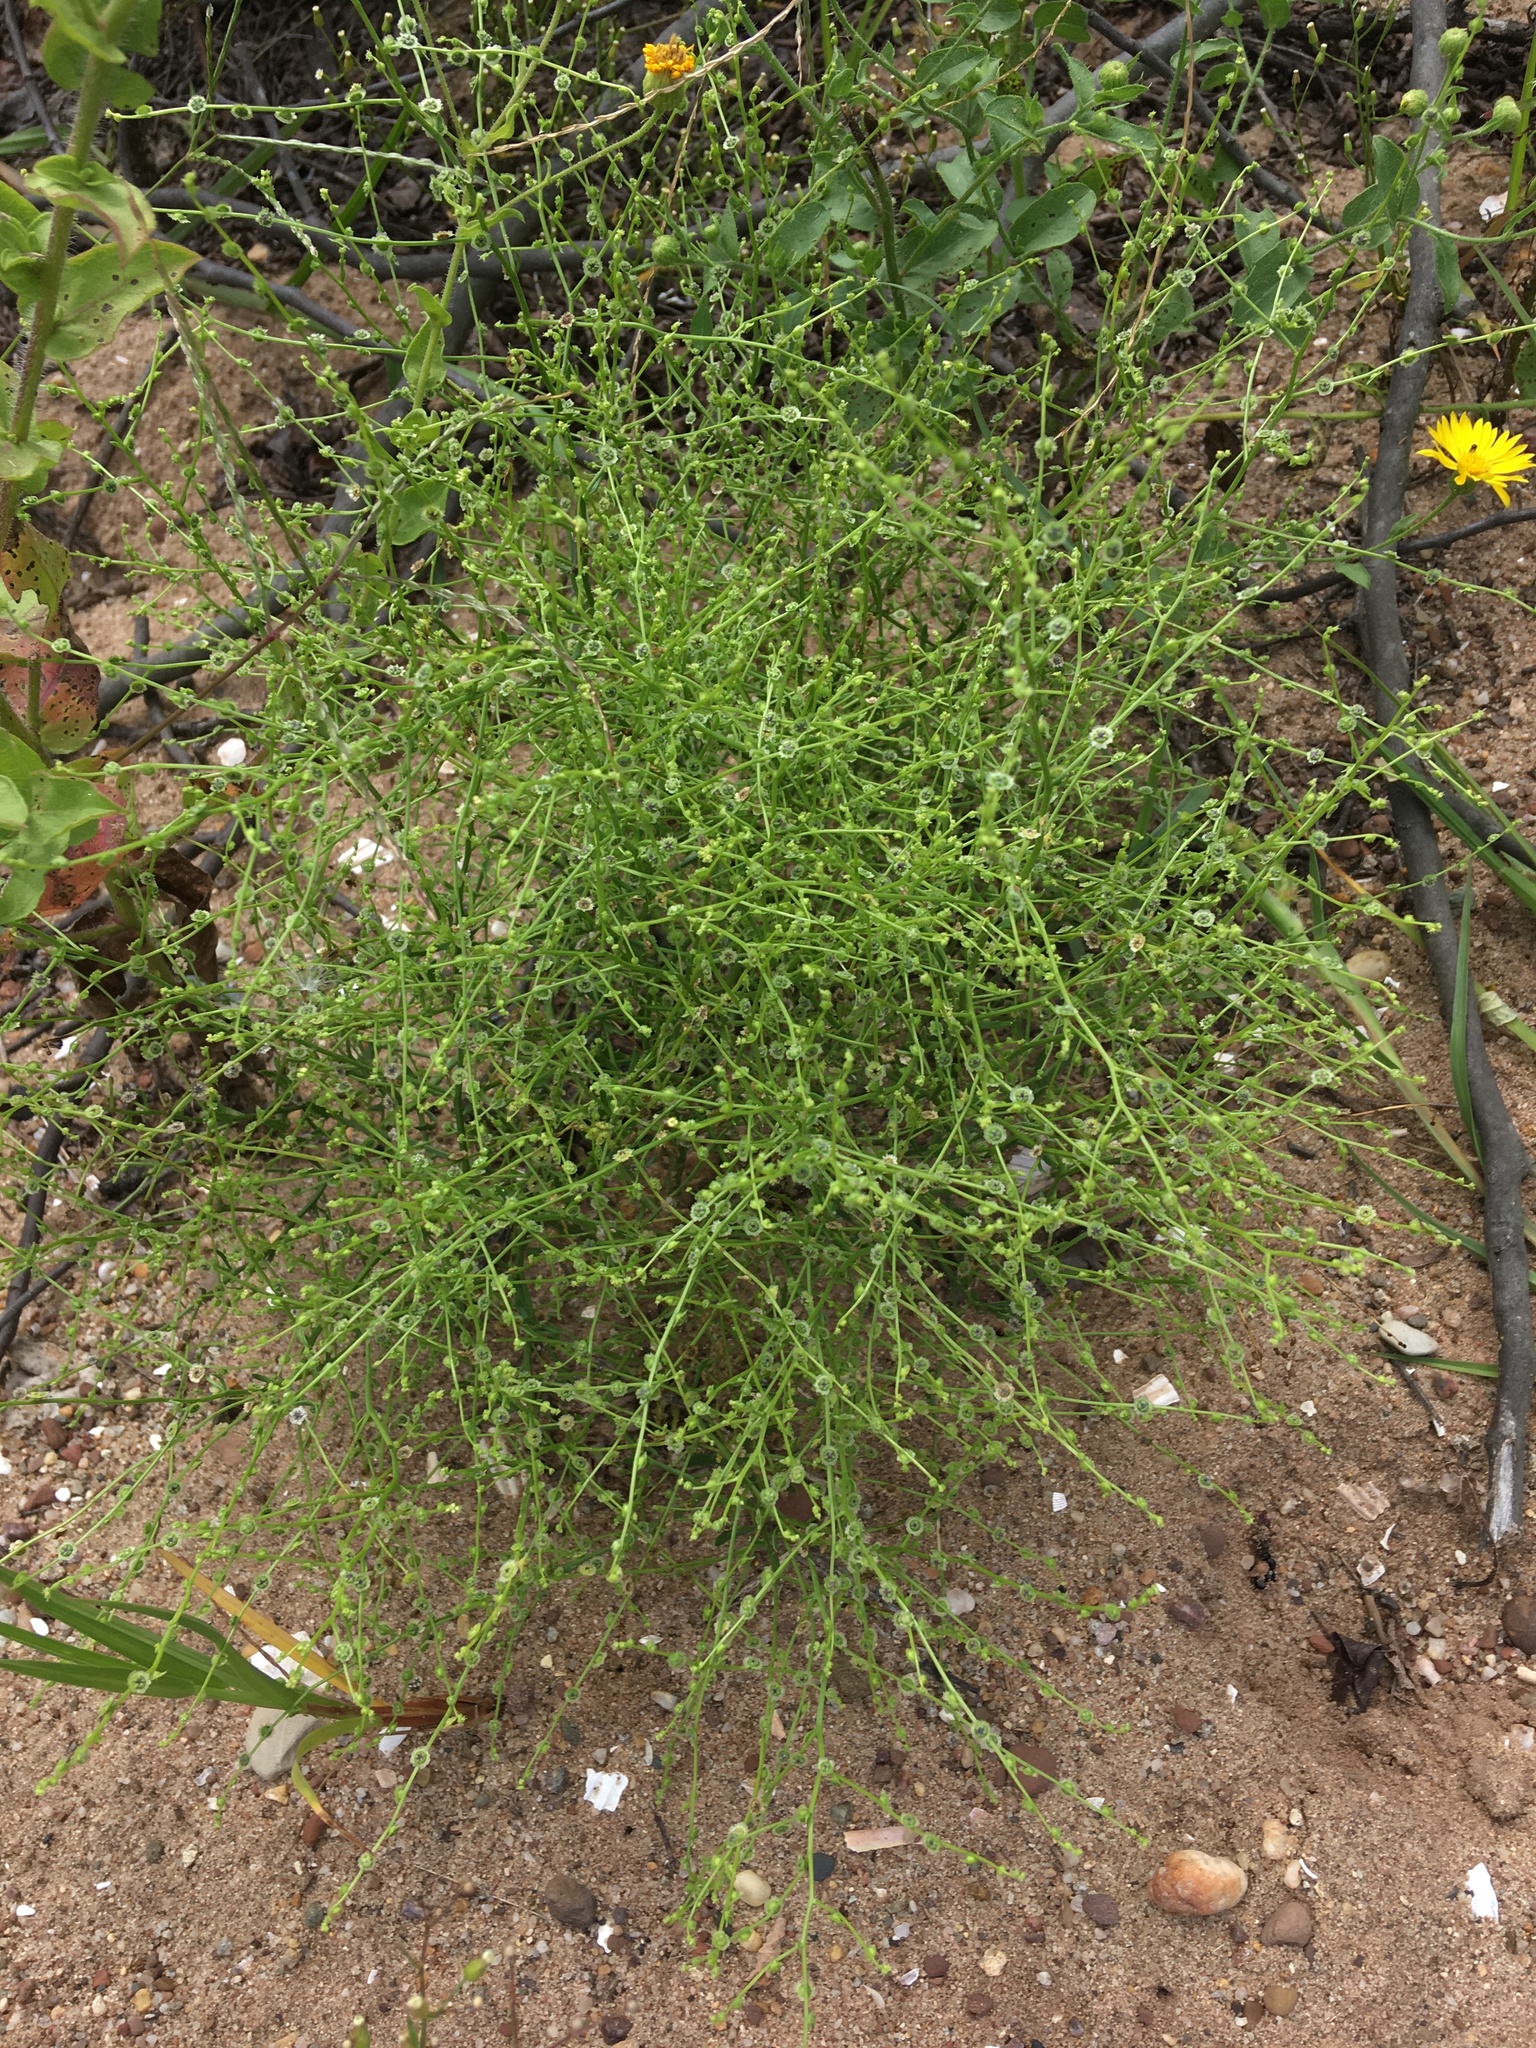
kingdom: Plantae
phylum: Tracheophyta
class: Magnoliopsida
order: Caryophyllales
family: Amaranthaceae
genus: Dysphania
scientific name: Dysphania atriplicifolia
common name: Plains tumbleweed
